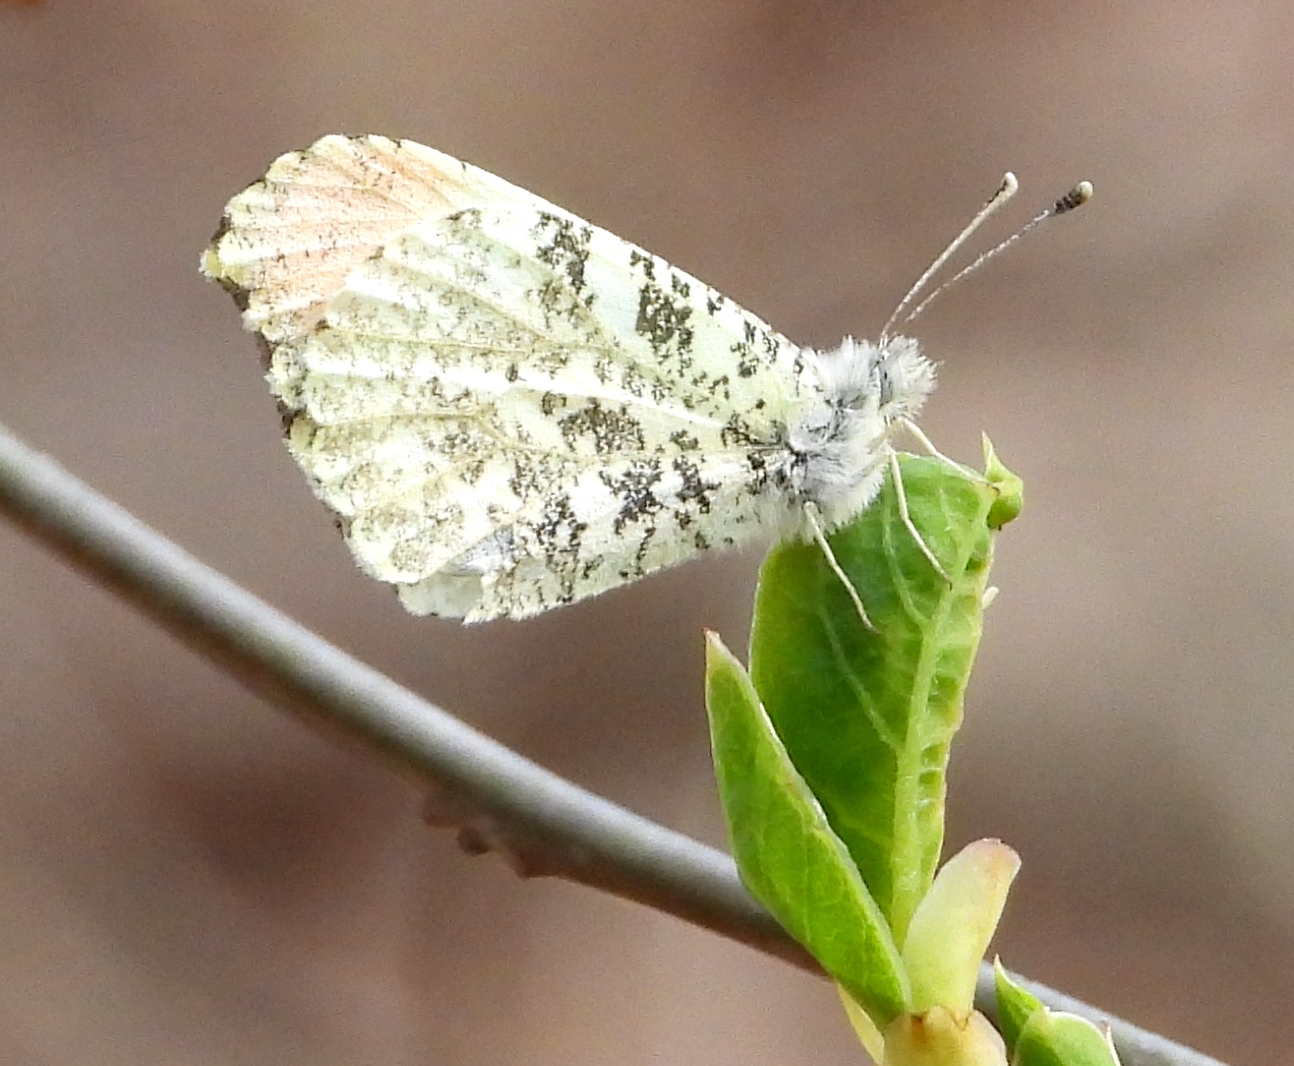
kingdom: Animalia
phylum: Arthropoda
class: Insecta
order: Lepidoptera
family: Pieridae
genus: Anthocharis
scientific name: Anthocharis midea
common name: Falcate orangetip
